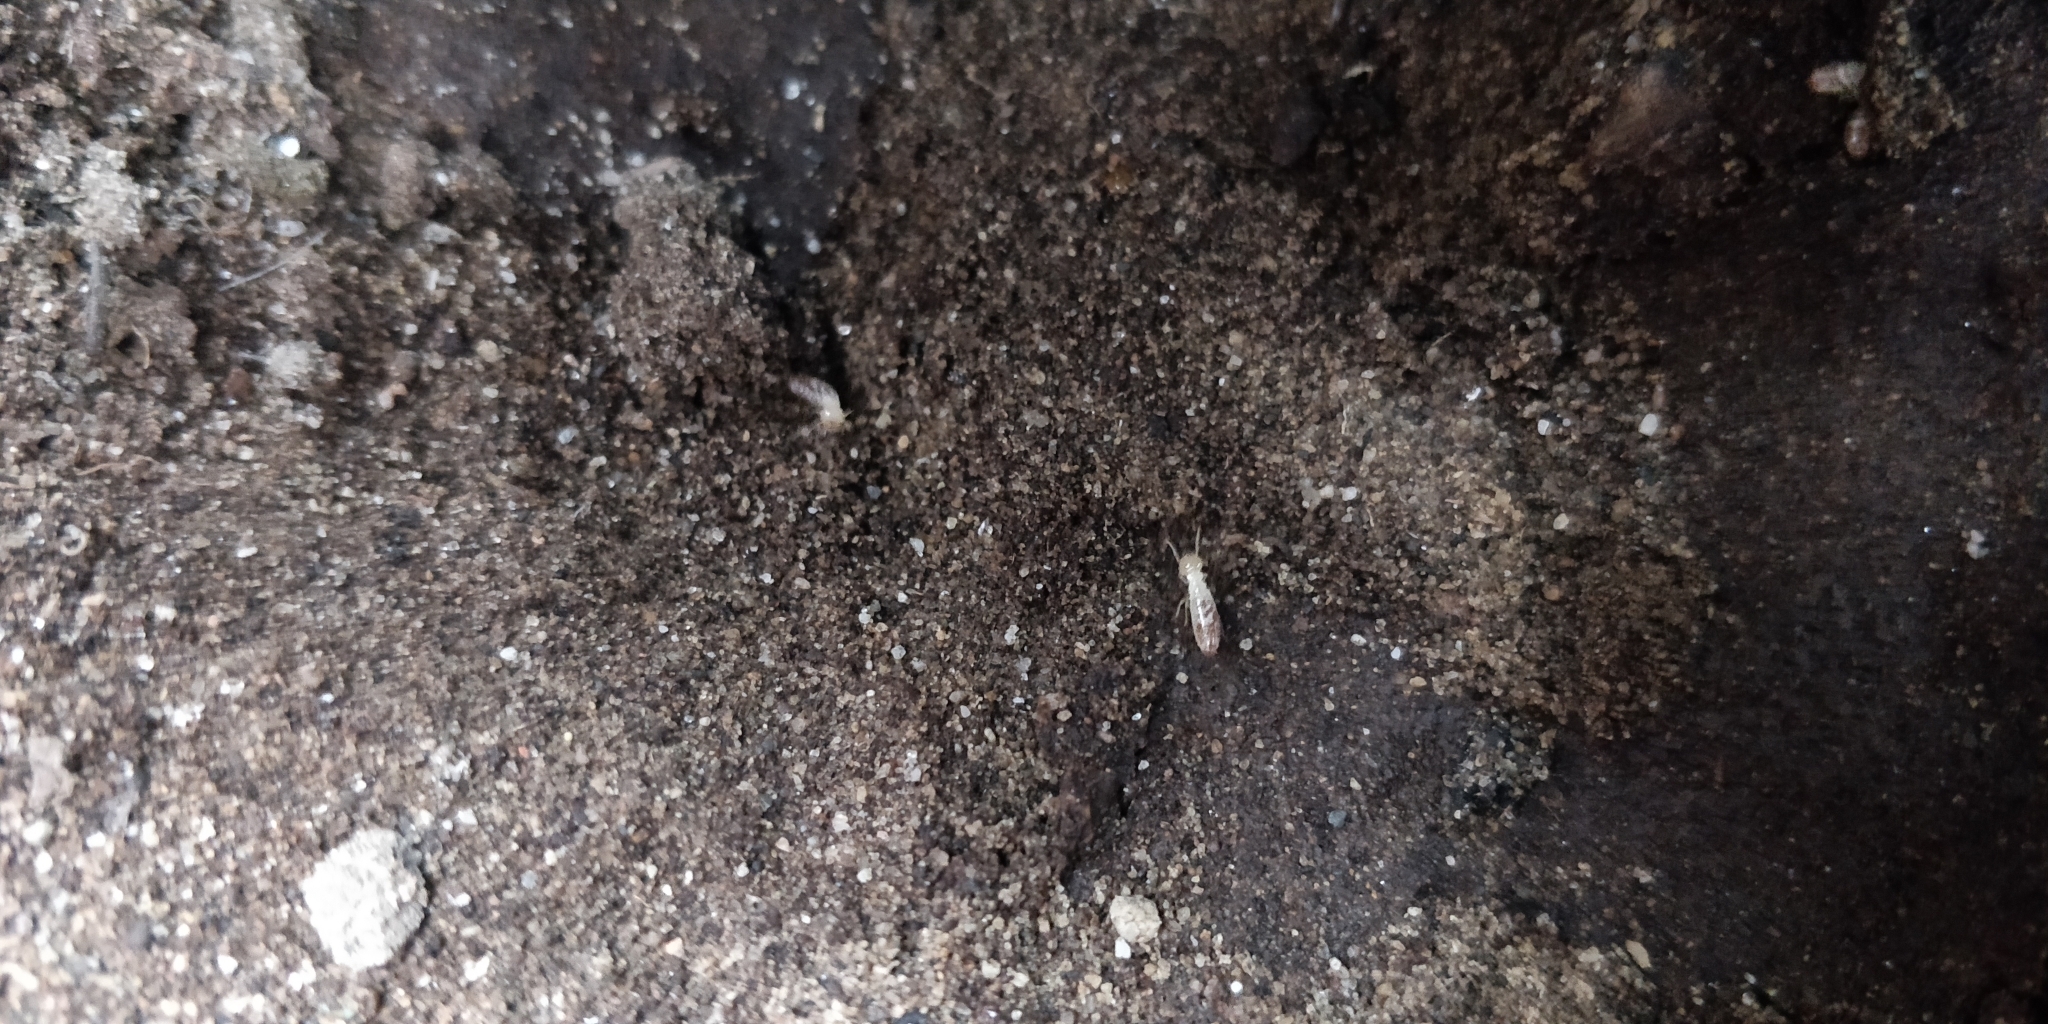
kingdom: Animalia
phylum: Arthropoda
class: Insecta
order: Blattodea
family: Rhinotermitidae
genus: Reticulitermes
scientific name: Reticulitermes hesperus
